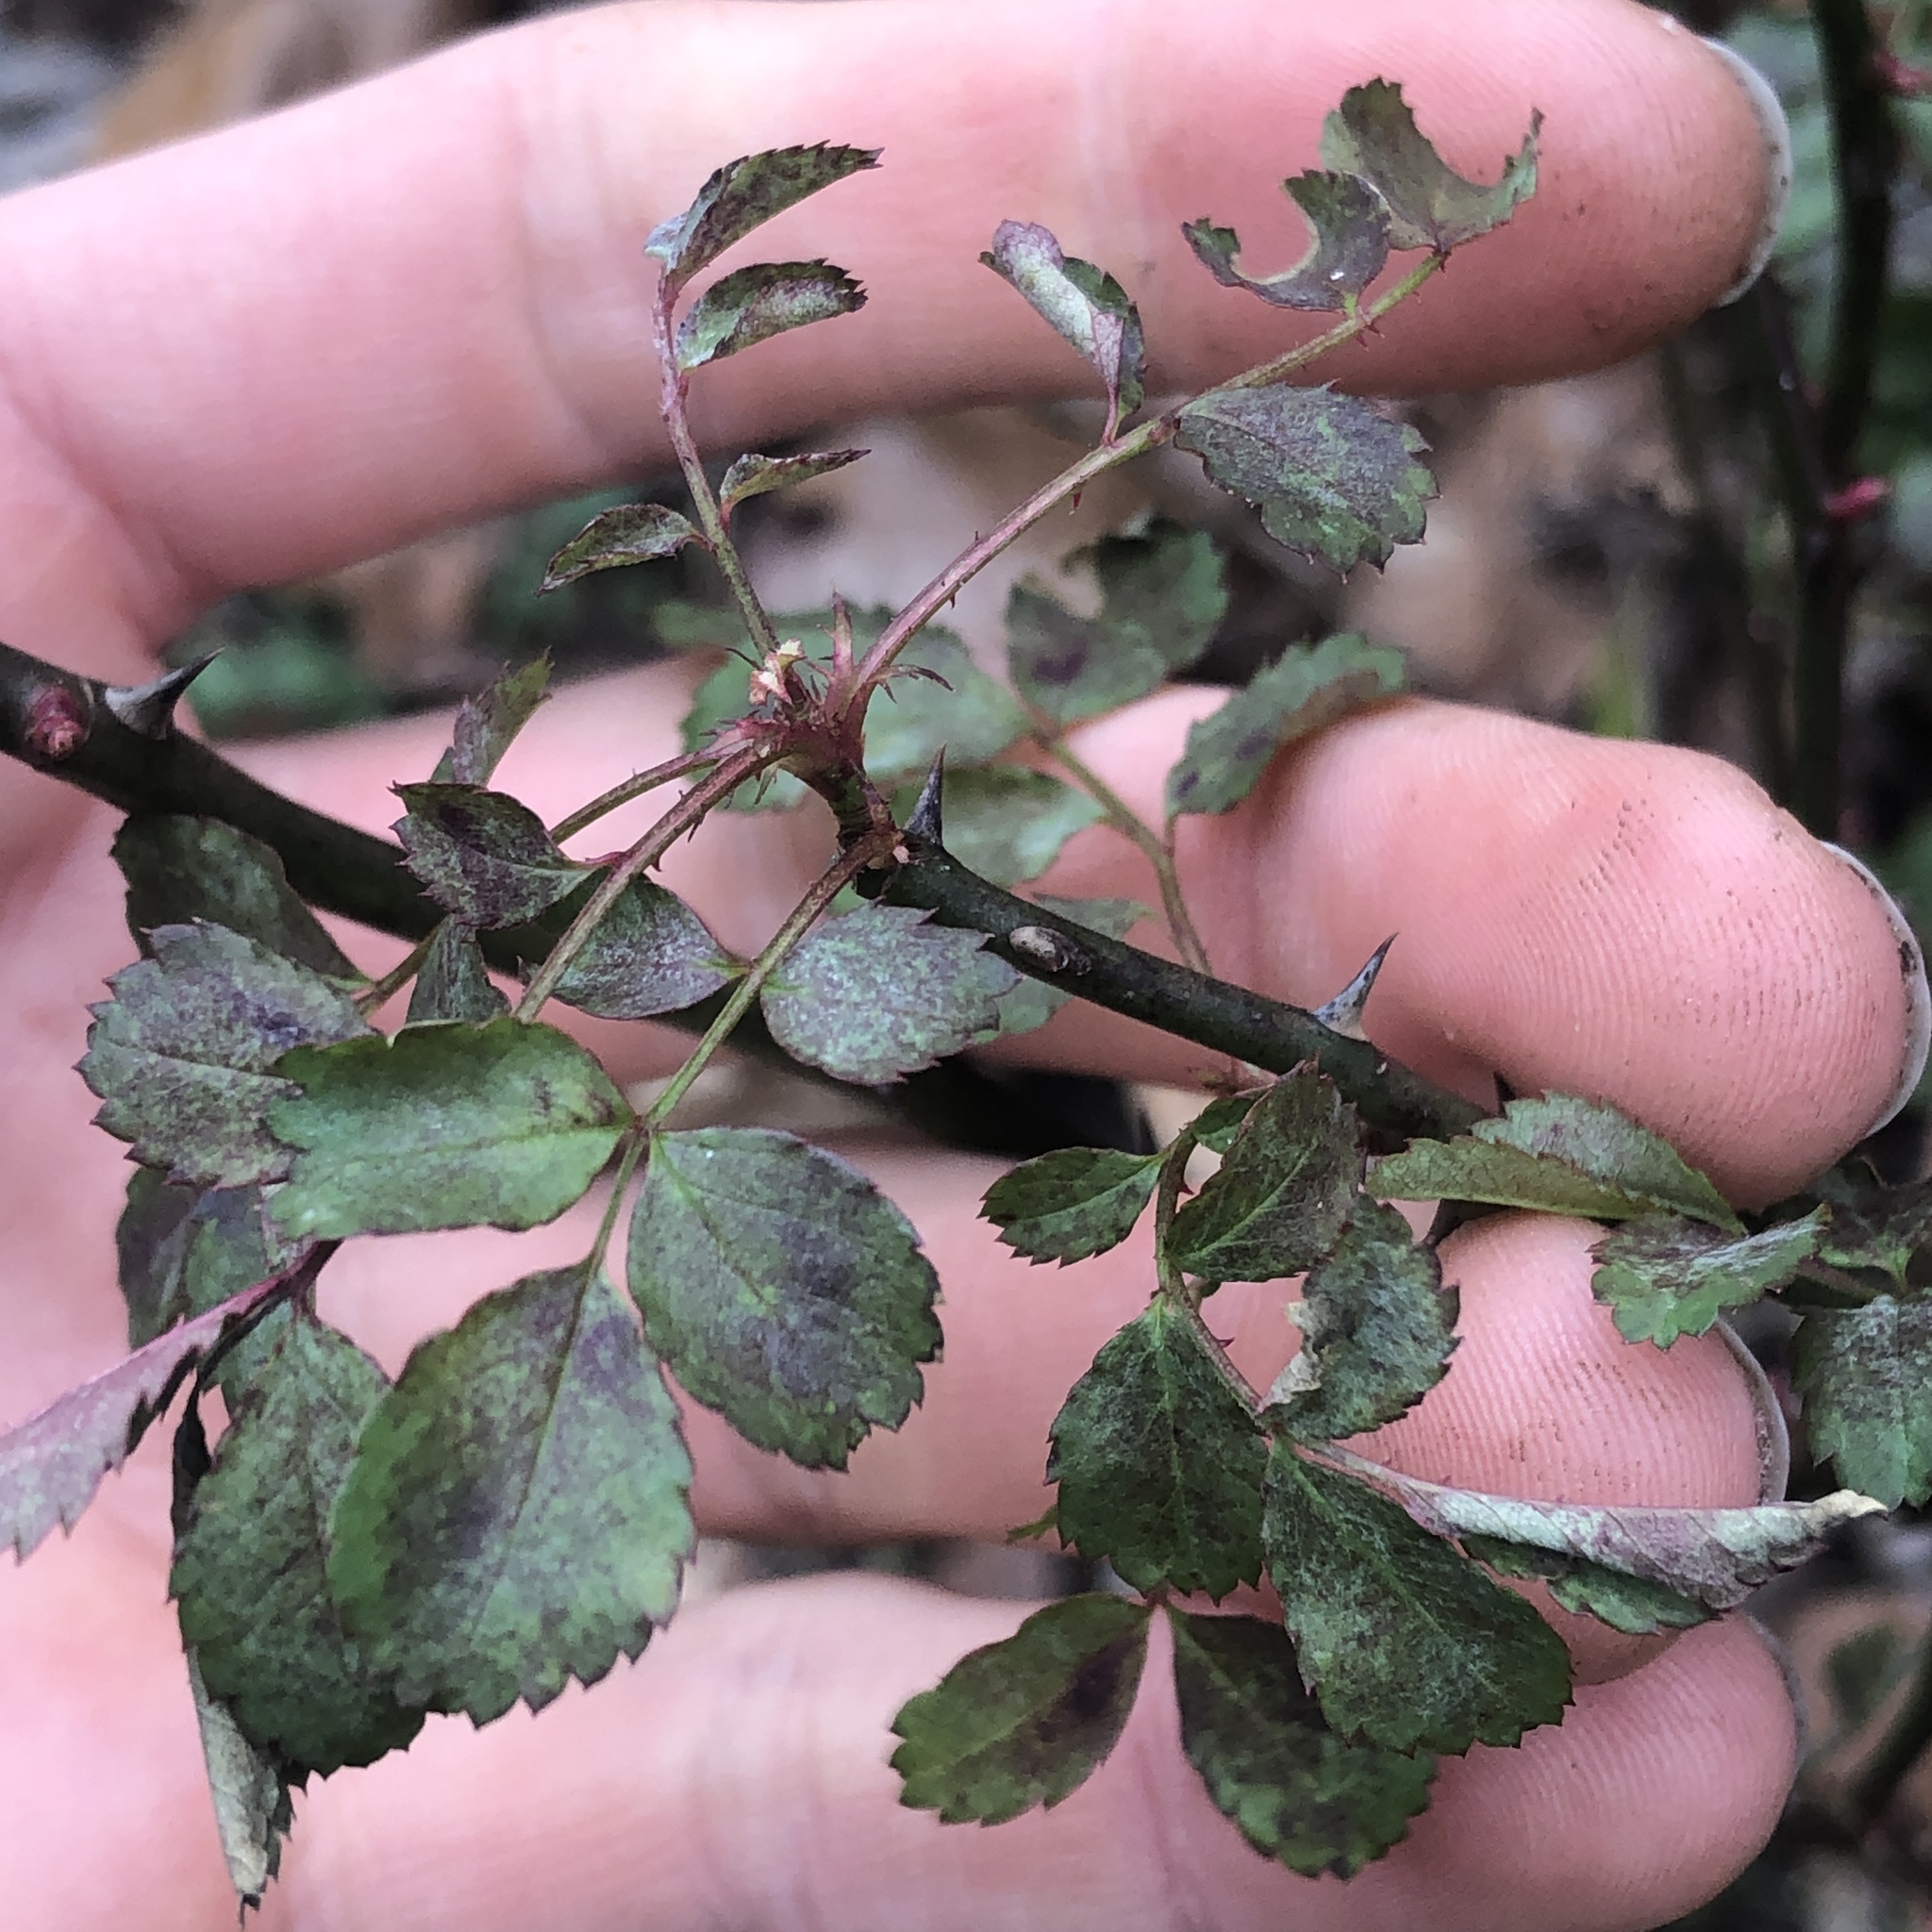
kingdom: Plantae
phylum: Tracheophyta
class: Magnoliopsida
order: Rosales
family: Rosaceae
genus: Rosa
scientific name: Rosa multiflora
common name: Multiflora rose
